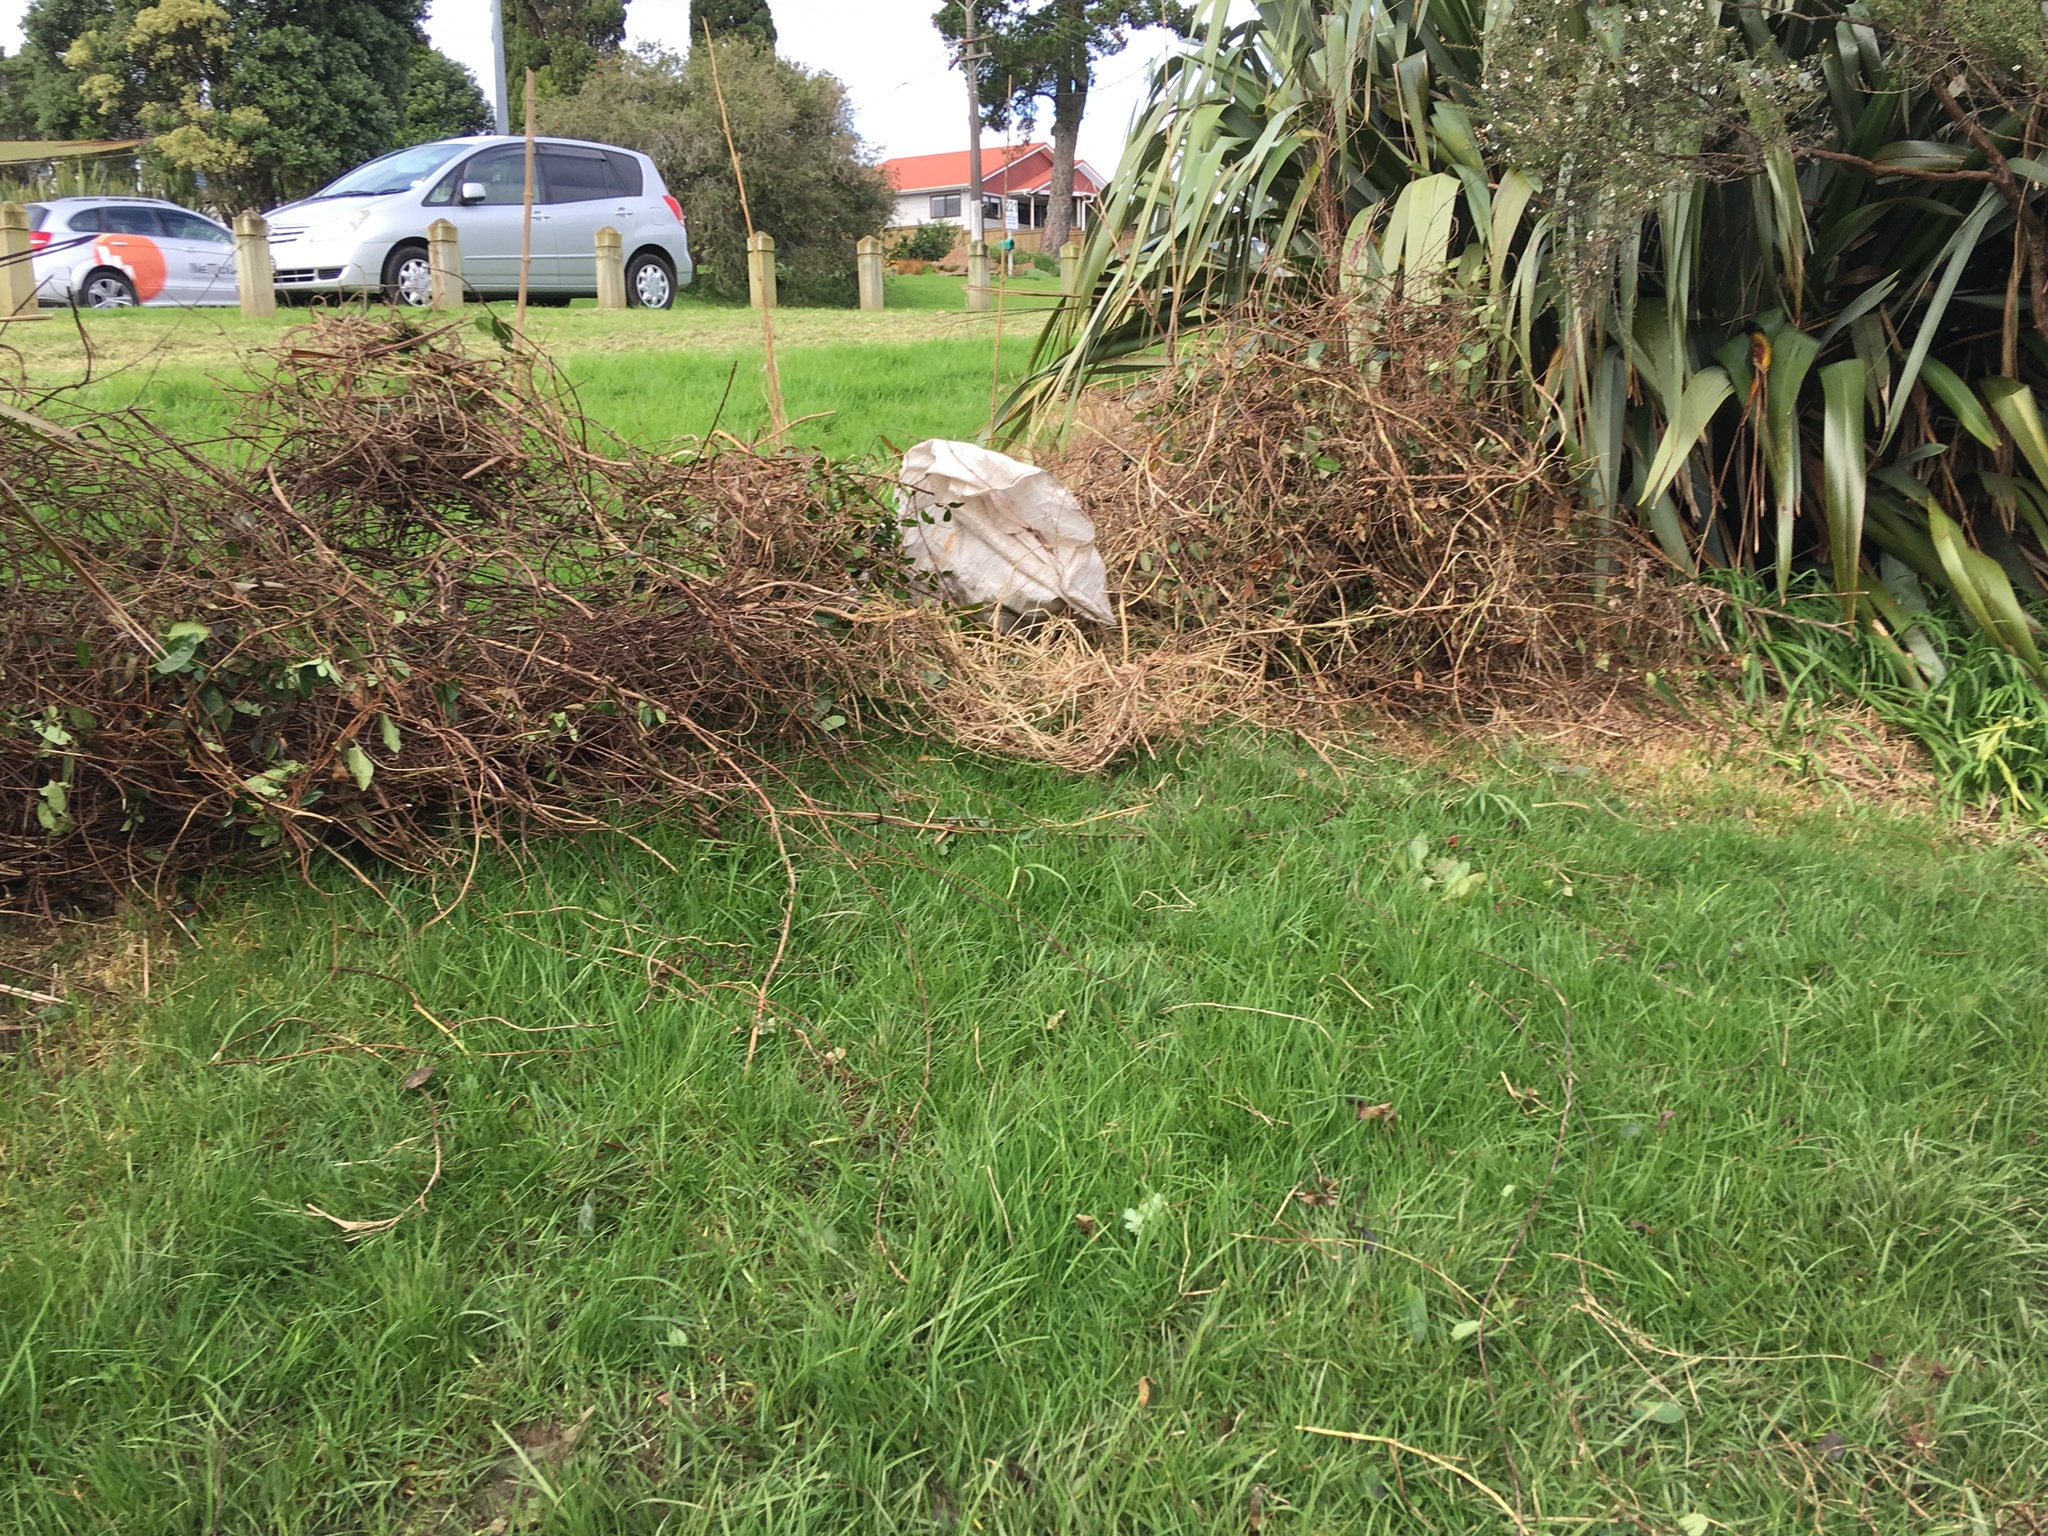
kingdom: Plantae
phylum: Tracheophyta
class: Liliopsida
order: Poales
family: Poaceae
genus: Cenchrus
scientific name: Cenchrus clandestinus
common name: Kikuyugrass
